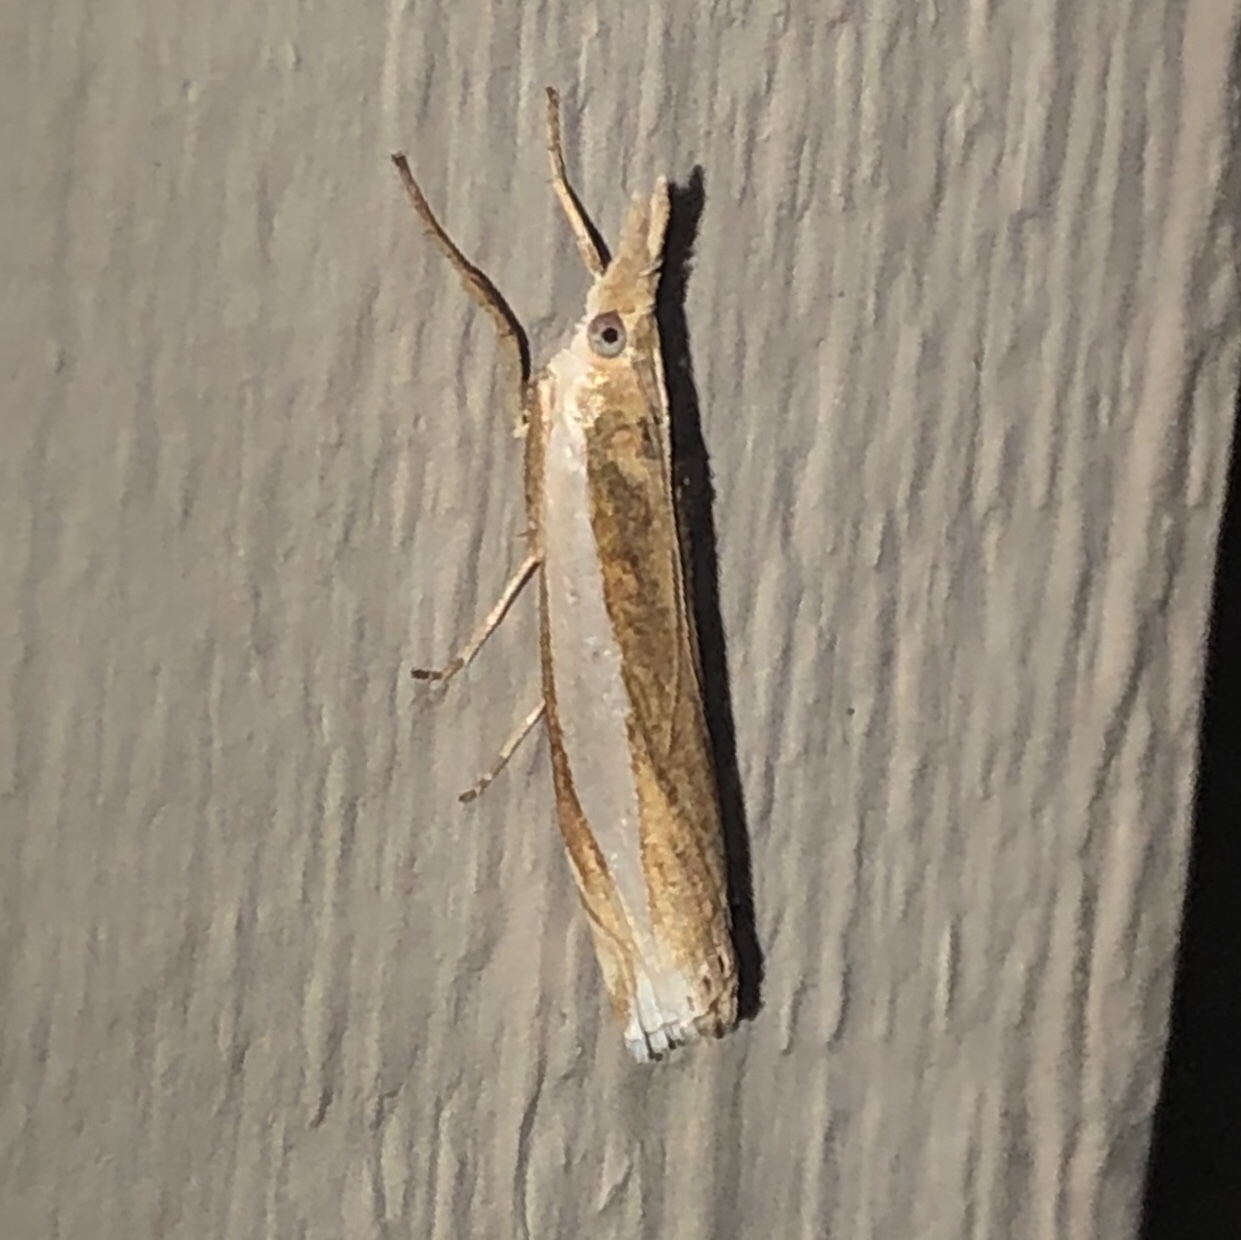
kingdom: Animalia
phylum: Arthropoda
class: Insecta
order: Lepidoptera
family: Crambidae
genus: Crambus
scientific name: Crambus leachellus
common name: Leach's grass-veneer
